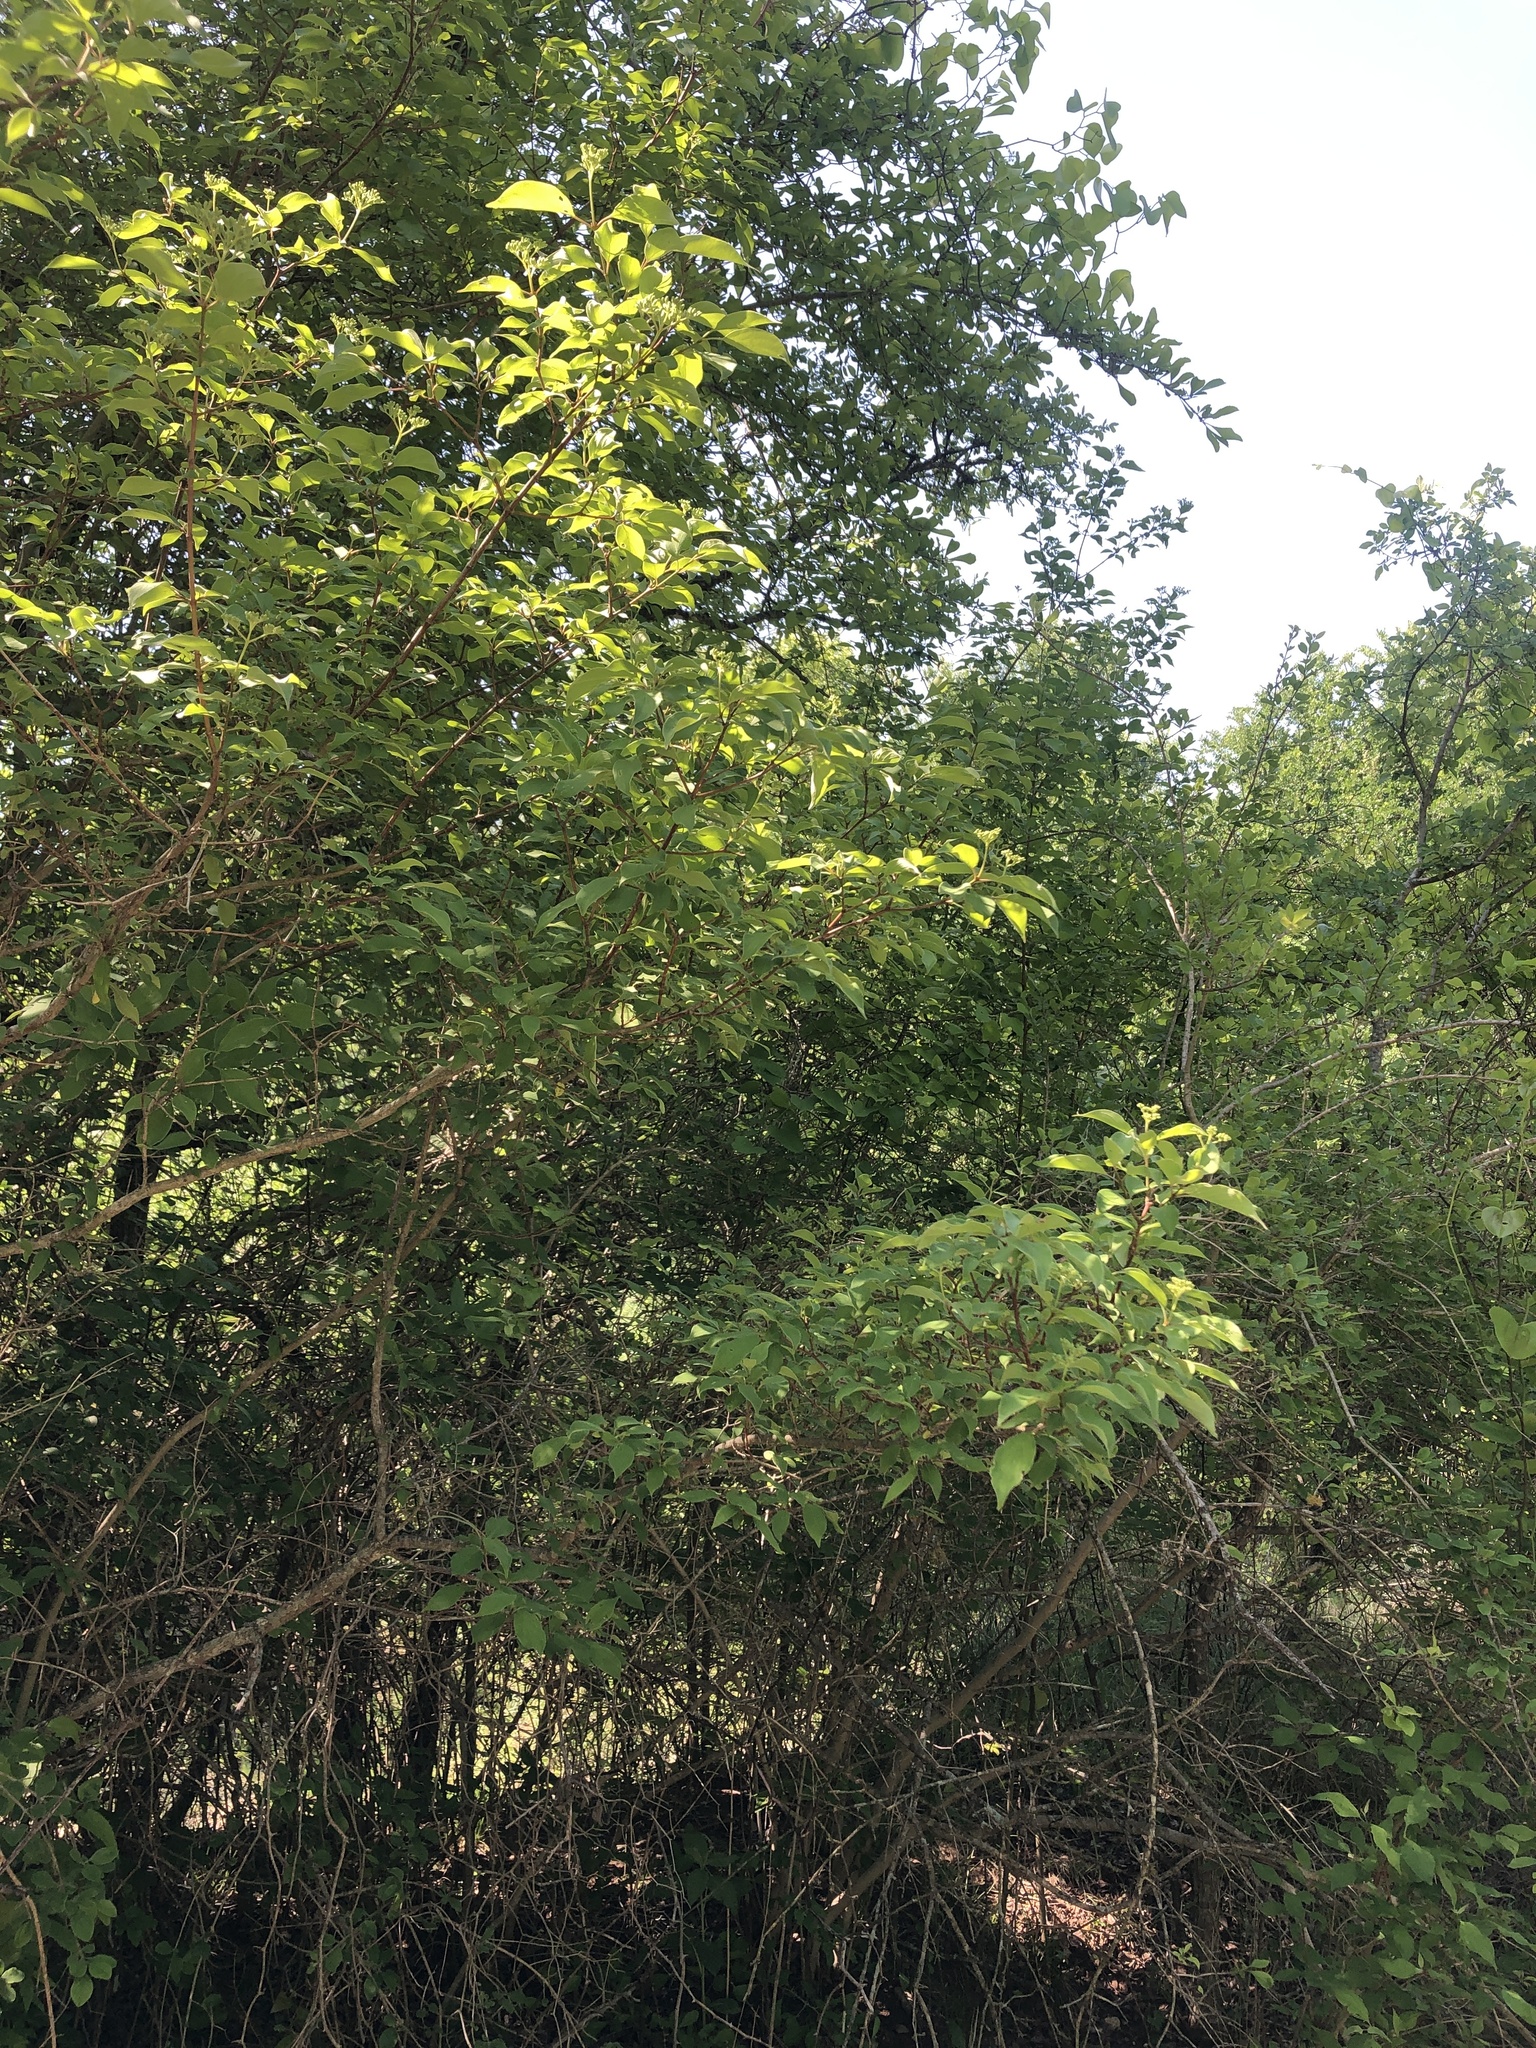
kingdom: Plantae
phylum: Tracheophyta
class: Magnoliopsida
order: Cornales
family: Cornaceae
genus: Cornus
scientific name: Cornus drummondii
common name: Rough-leaf dogwood
